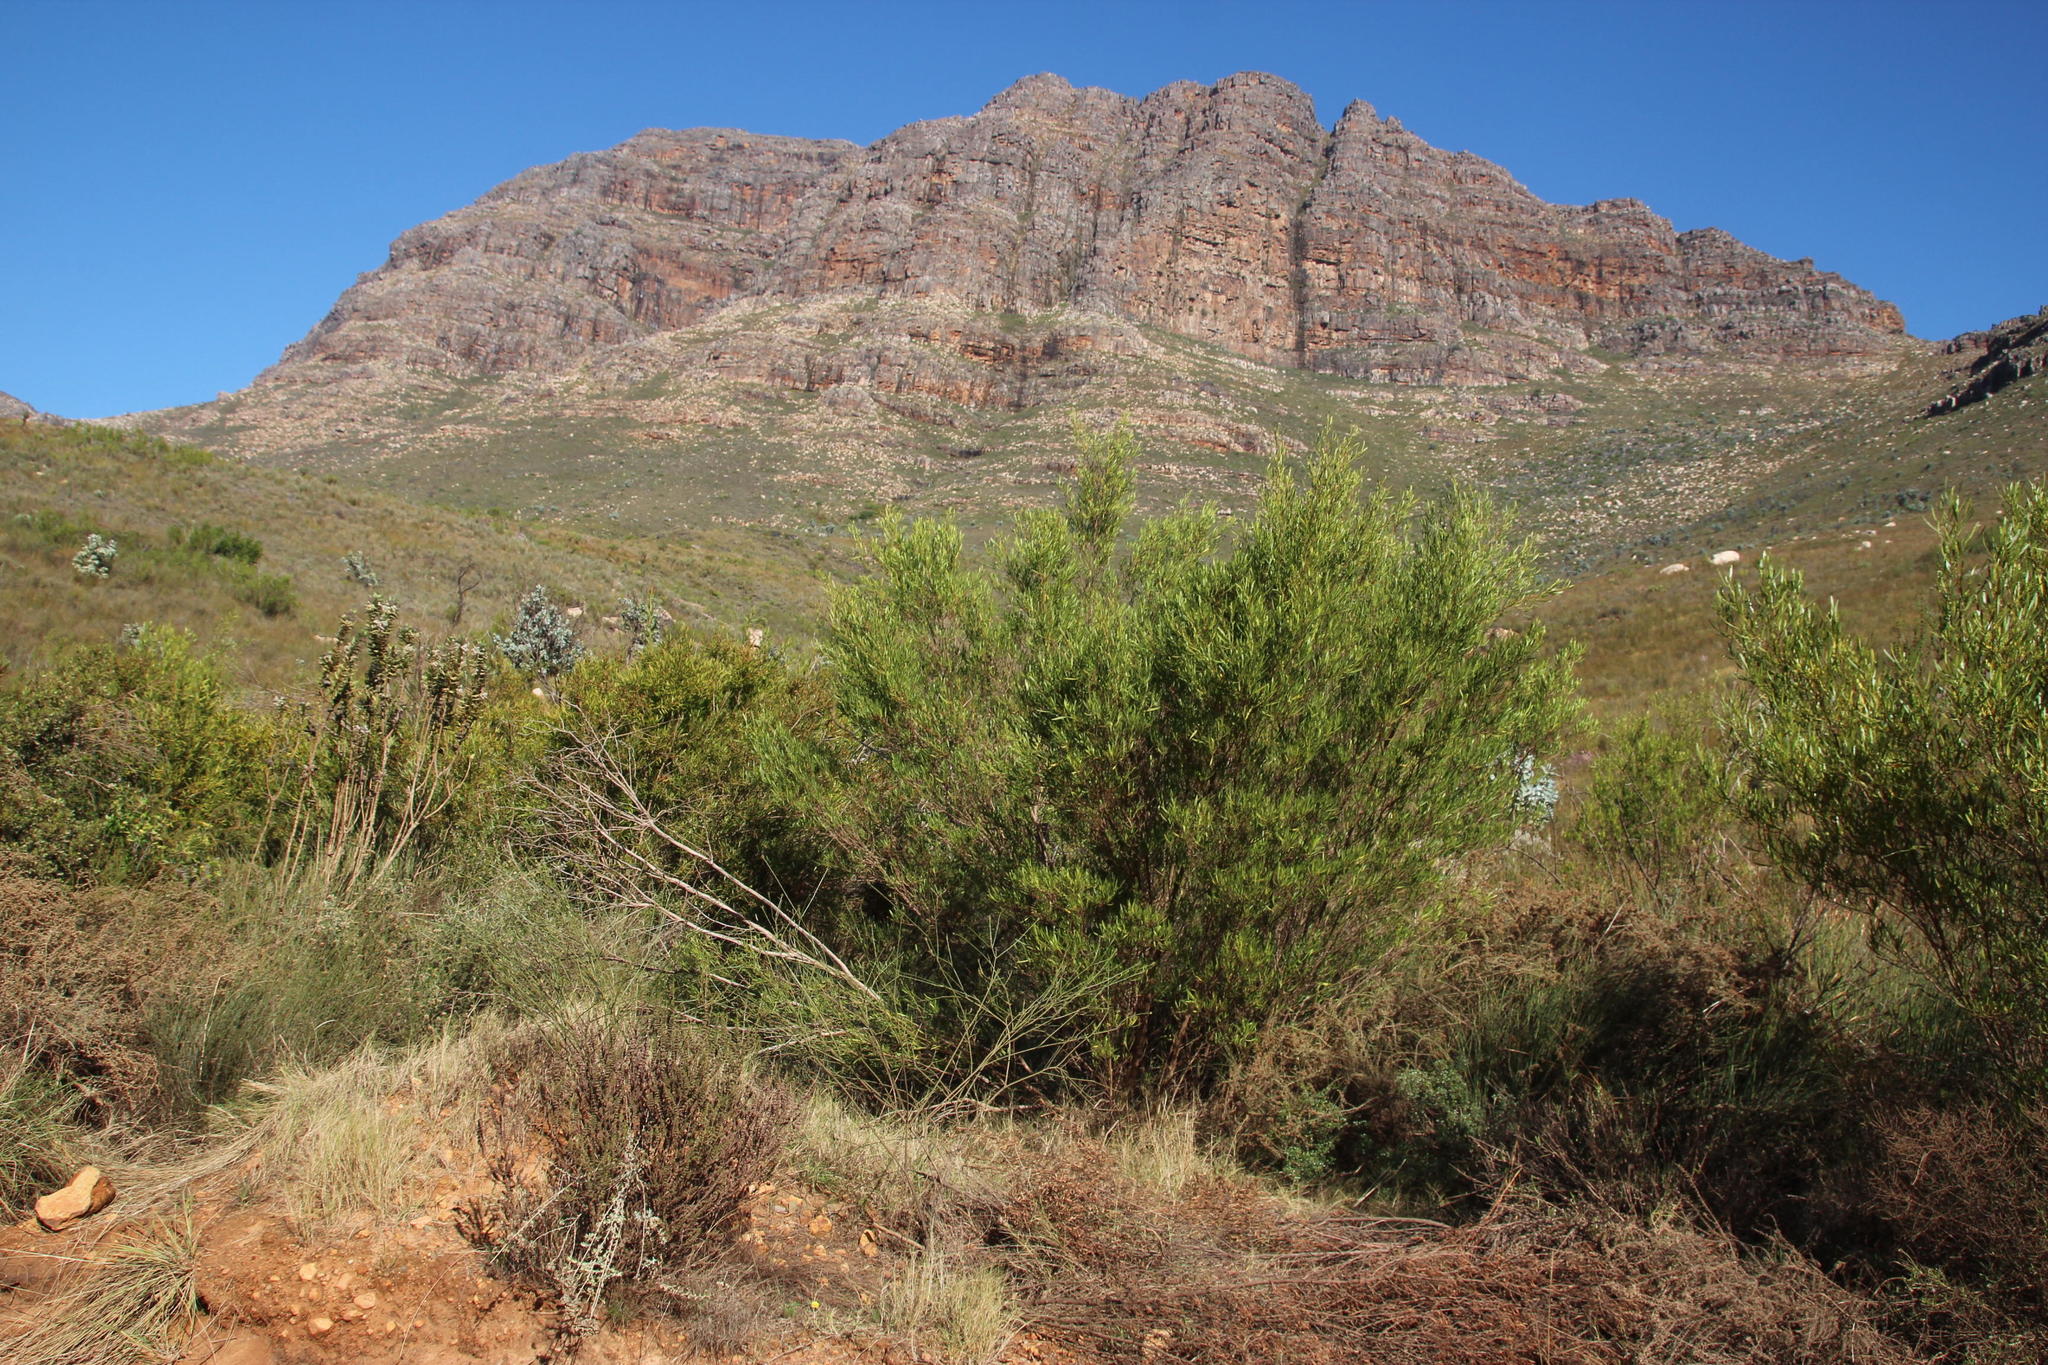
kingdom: Plantae
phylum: Tracheophyta
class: Magnoliopsida
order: Myrtales
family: Myrtaceae
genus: Callistemon
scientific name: Callistemon lanceolatus
